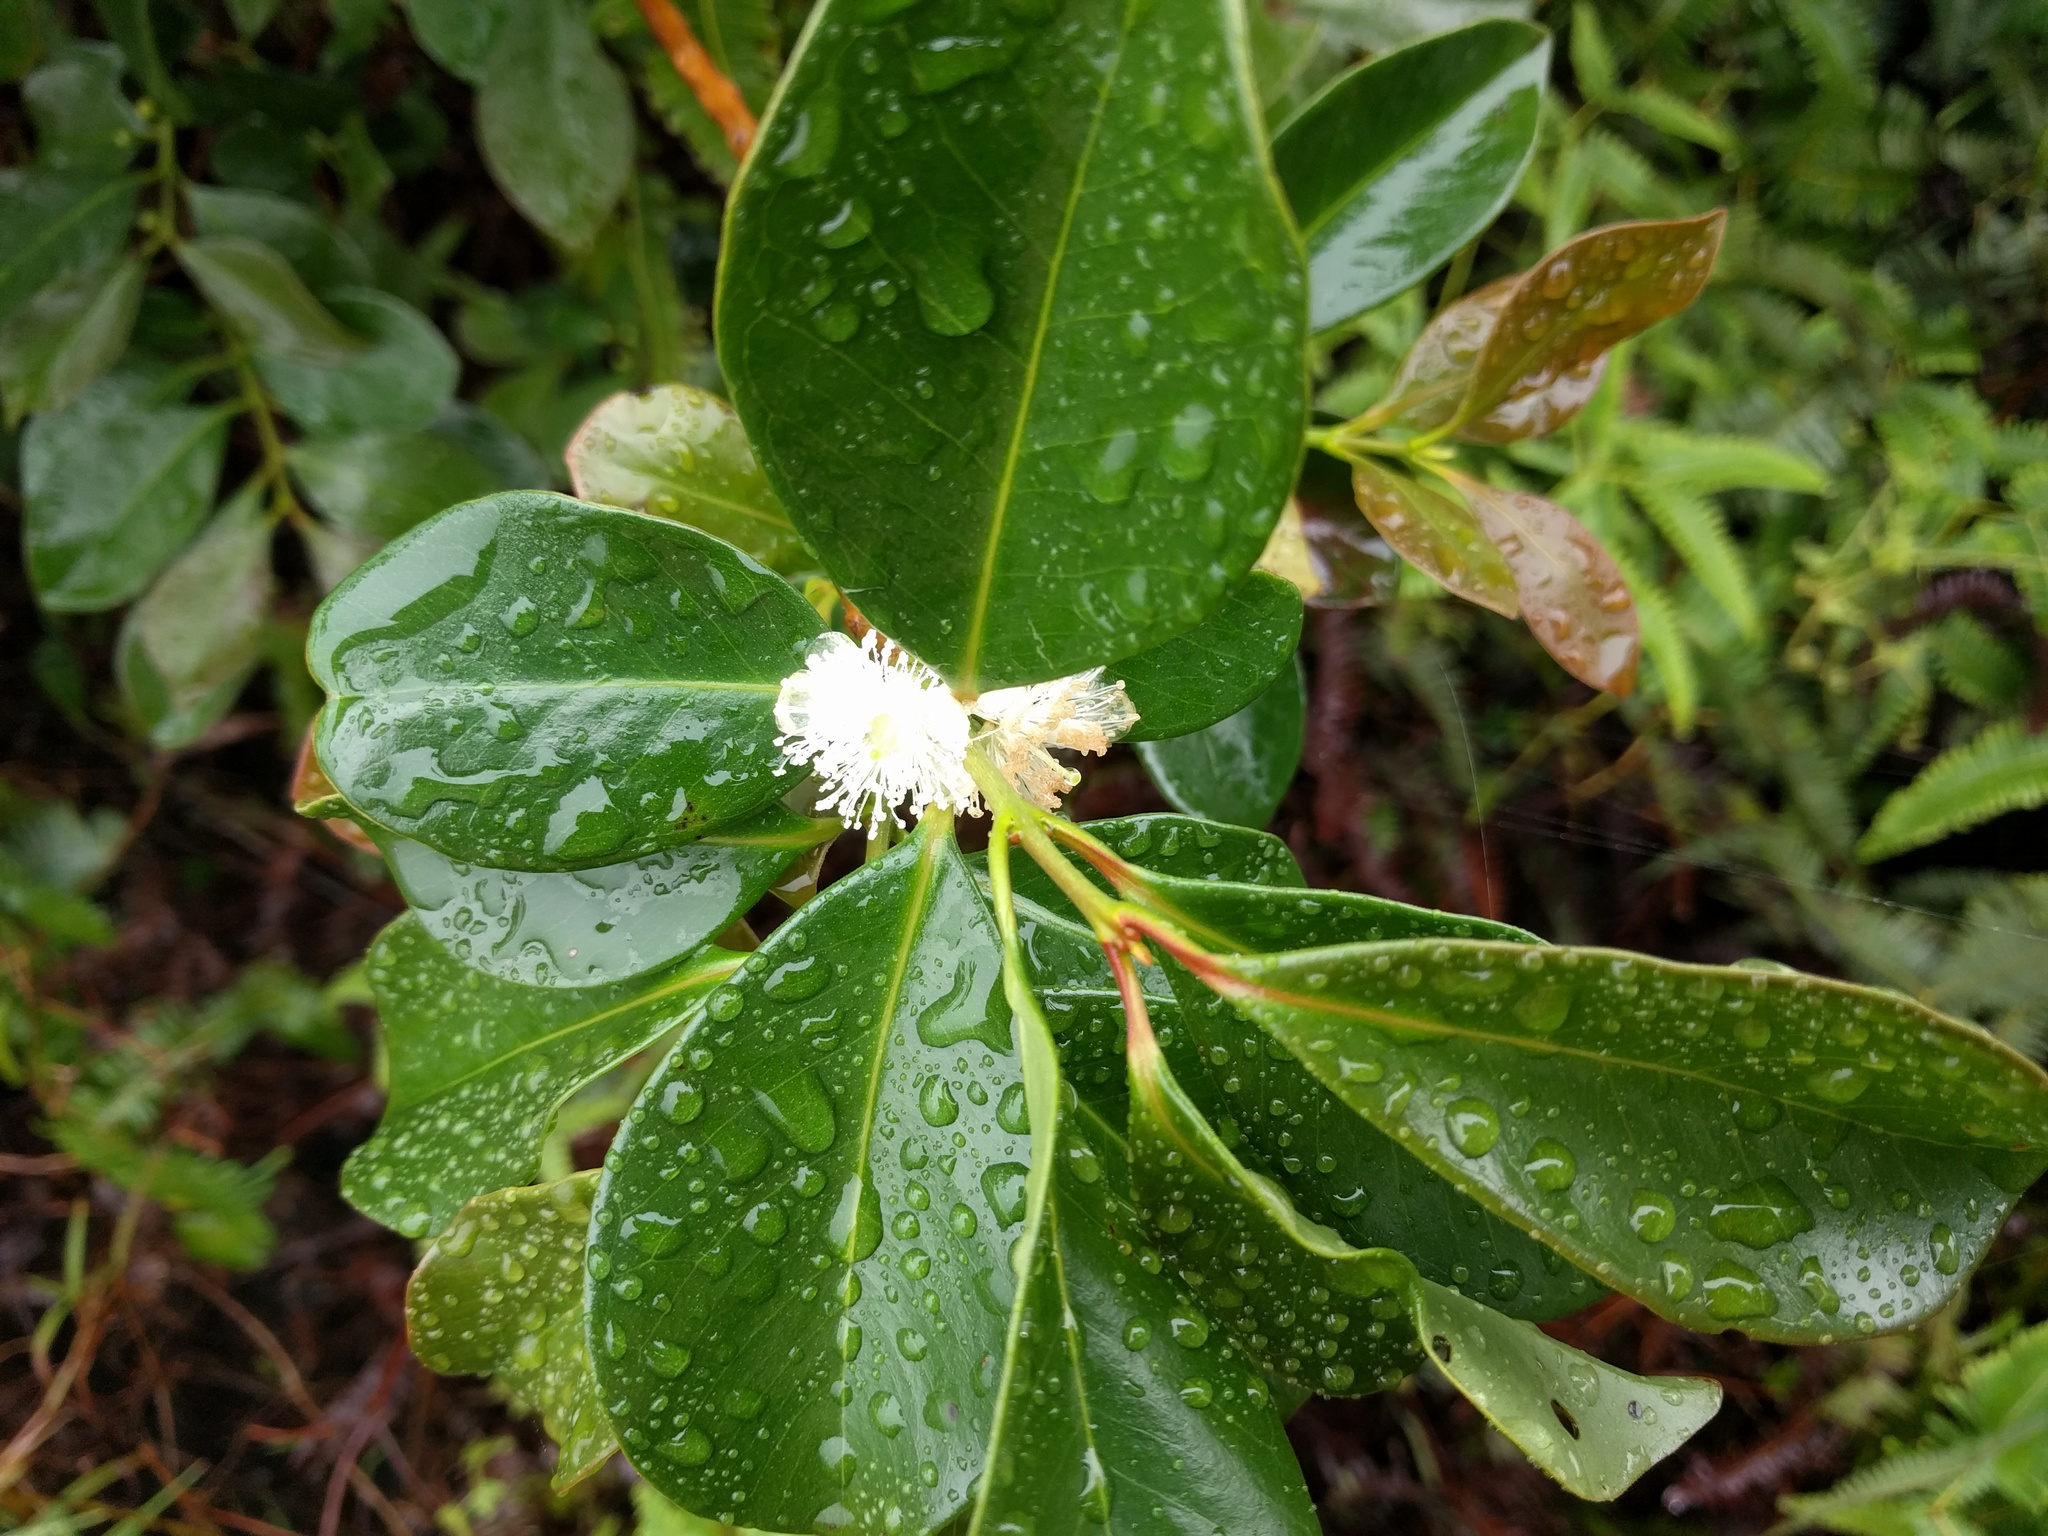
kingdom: Plantae
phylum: Tracheophyta
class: Magnoliopsida
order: Myrtales
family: Myrtaceae
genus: Psidium
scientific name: Psidium cattleianum
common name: Strawberry guava
